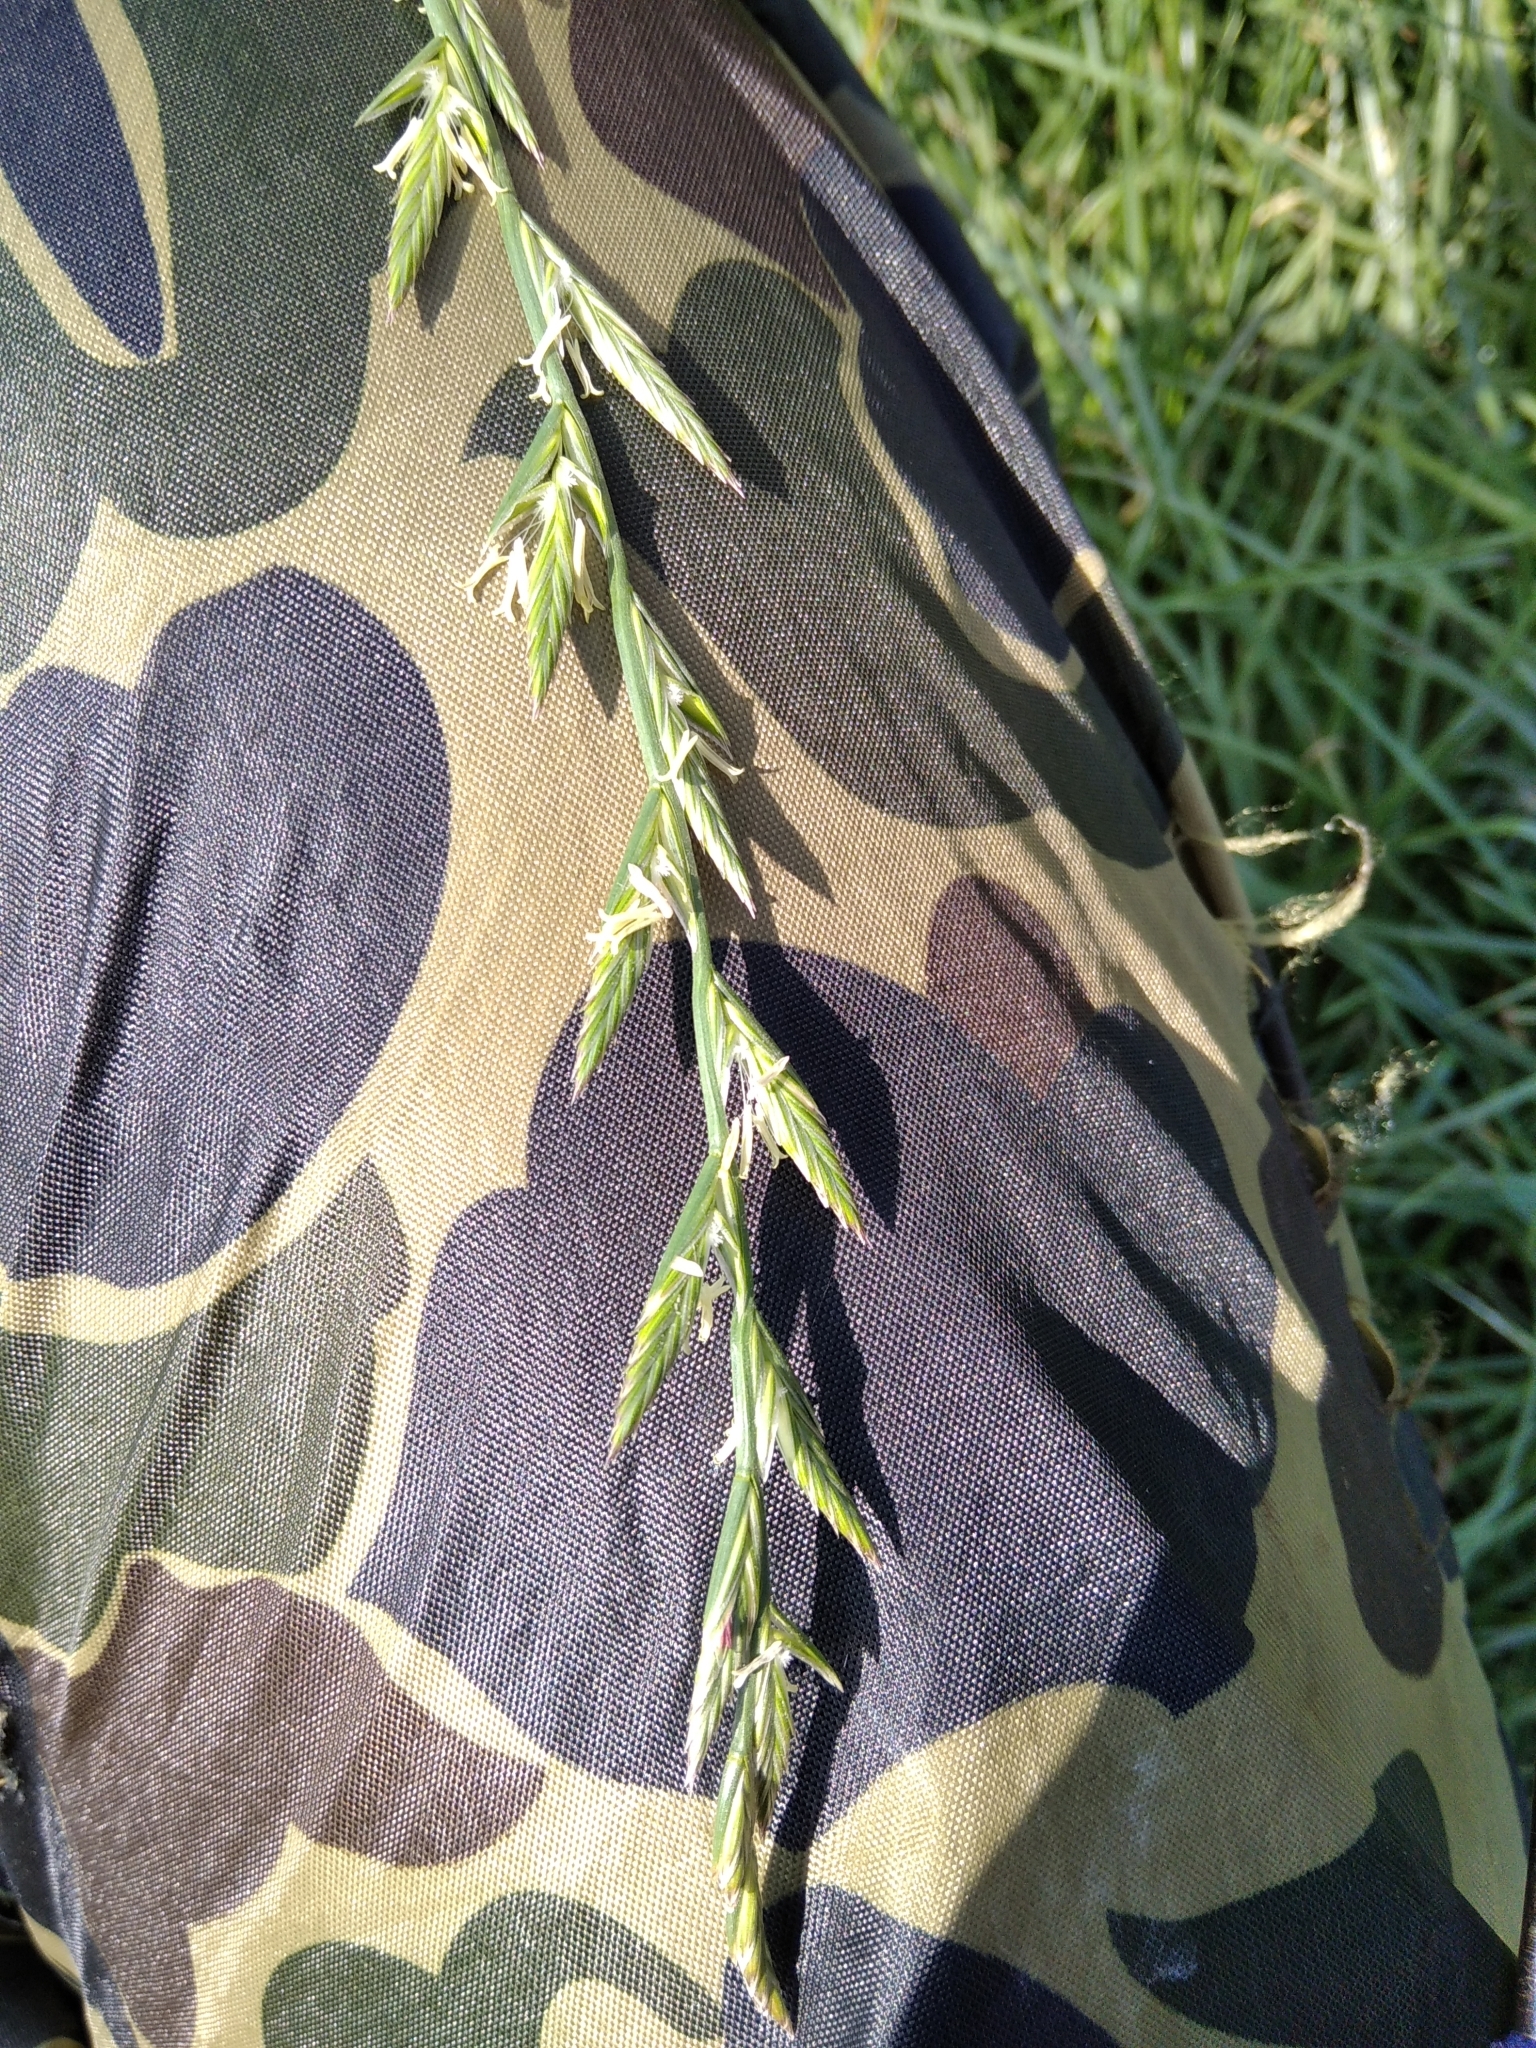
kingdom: Plantae
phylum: Tracheophyta
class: Liliopsida
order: Poales
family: Poaceae
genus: Lolium
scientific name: Lolium perenne
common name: Perennial ryegrass
